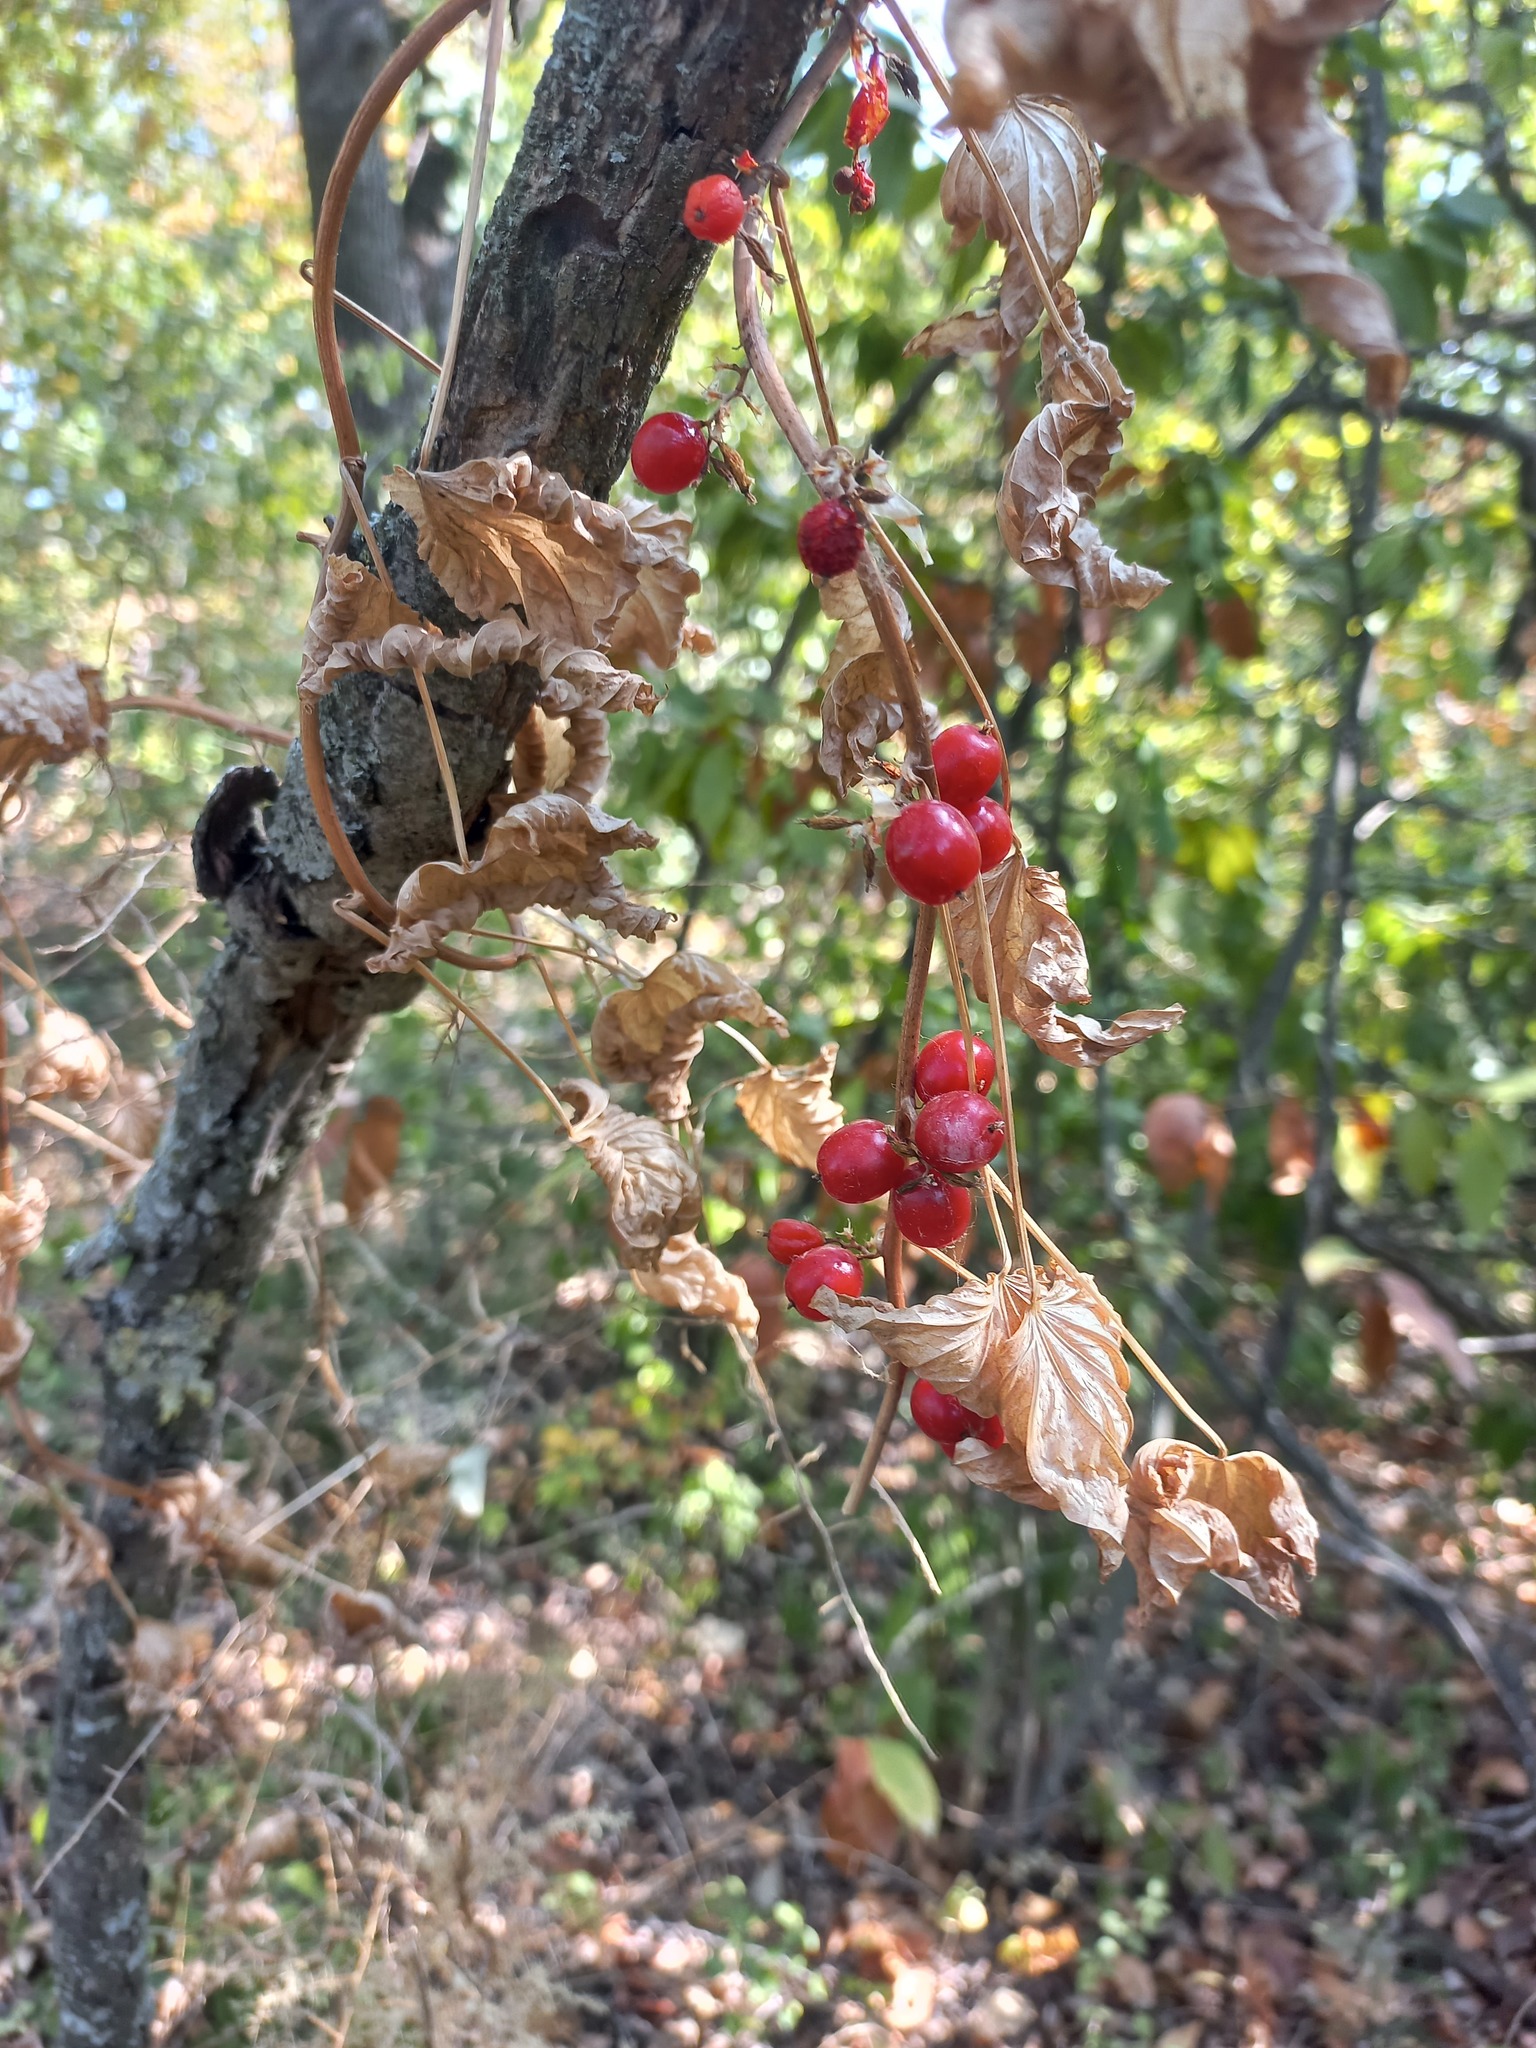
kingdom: Plantae
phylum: Tracheophyta
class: Liliopsida
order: Dioscoreales
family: Dioscoreaceae
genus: Dioscorea
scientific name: Dioscorea communis
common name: Black-bindweed
